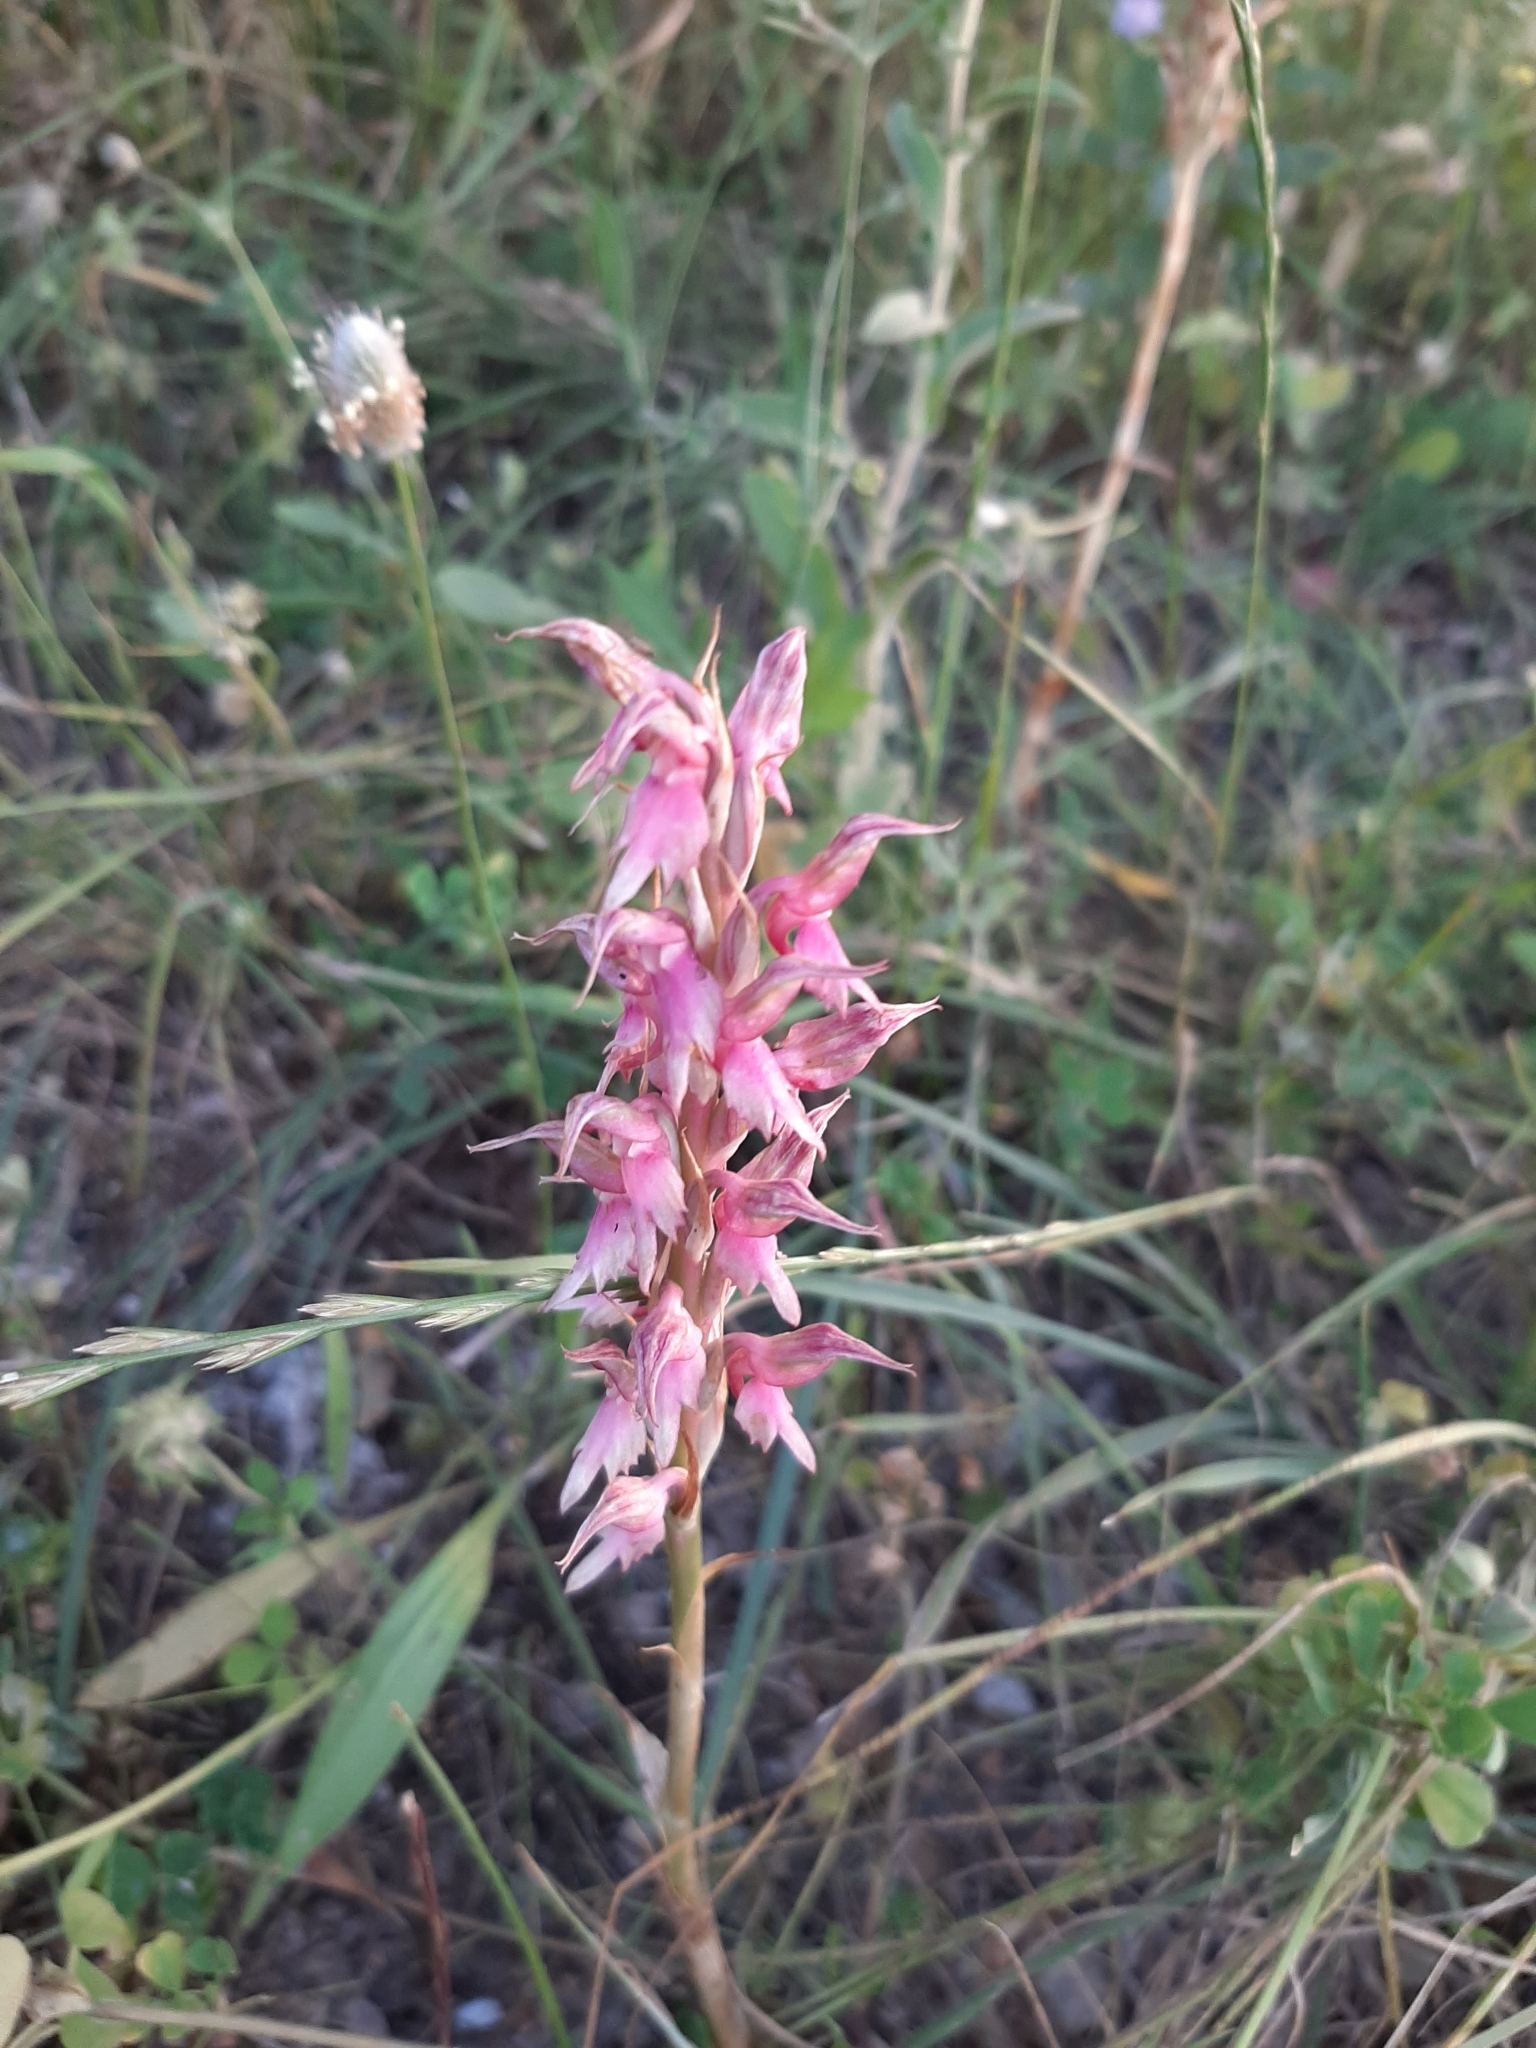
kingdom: Plantae
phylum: Tracheophyta
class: Liliopsida
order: Asparagales
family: Orchidaceae
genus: Anacamptis
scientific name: Anacamptis sancta
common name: Holy orchid
